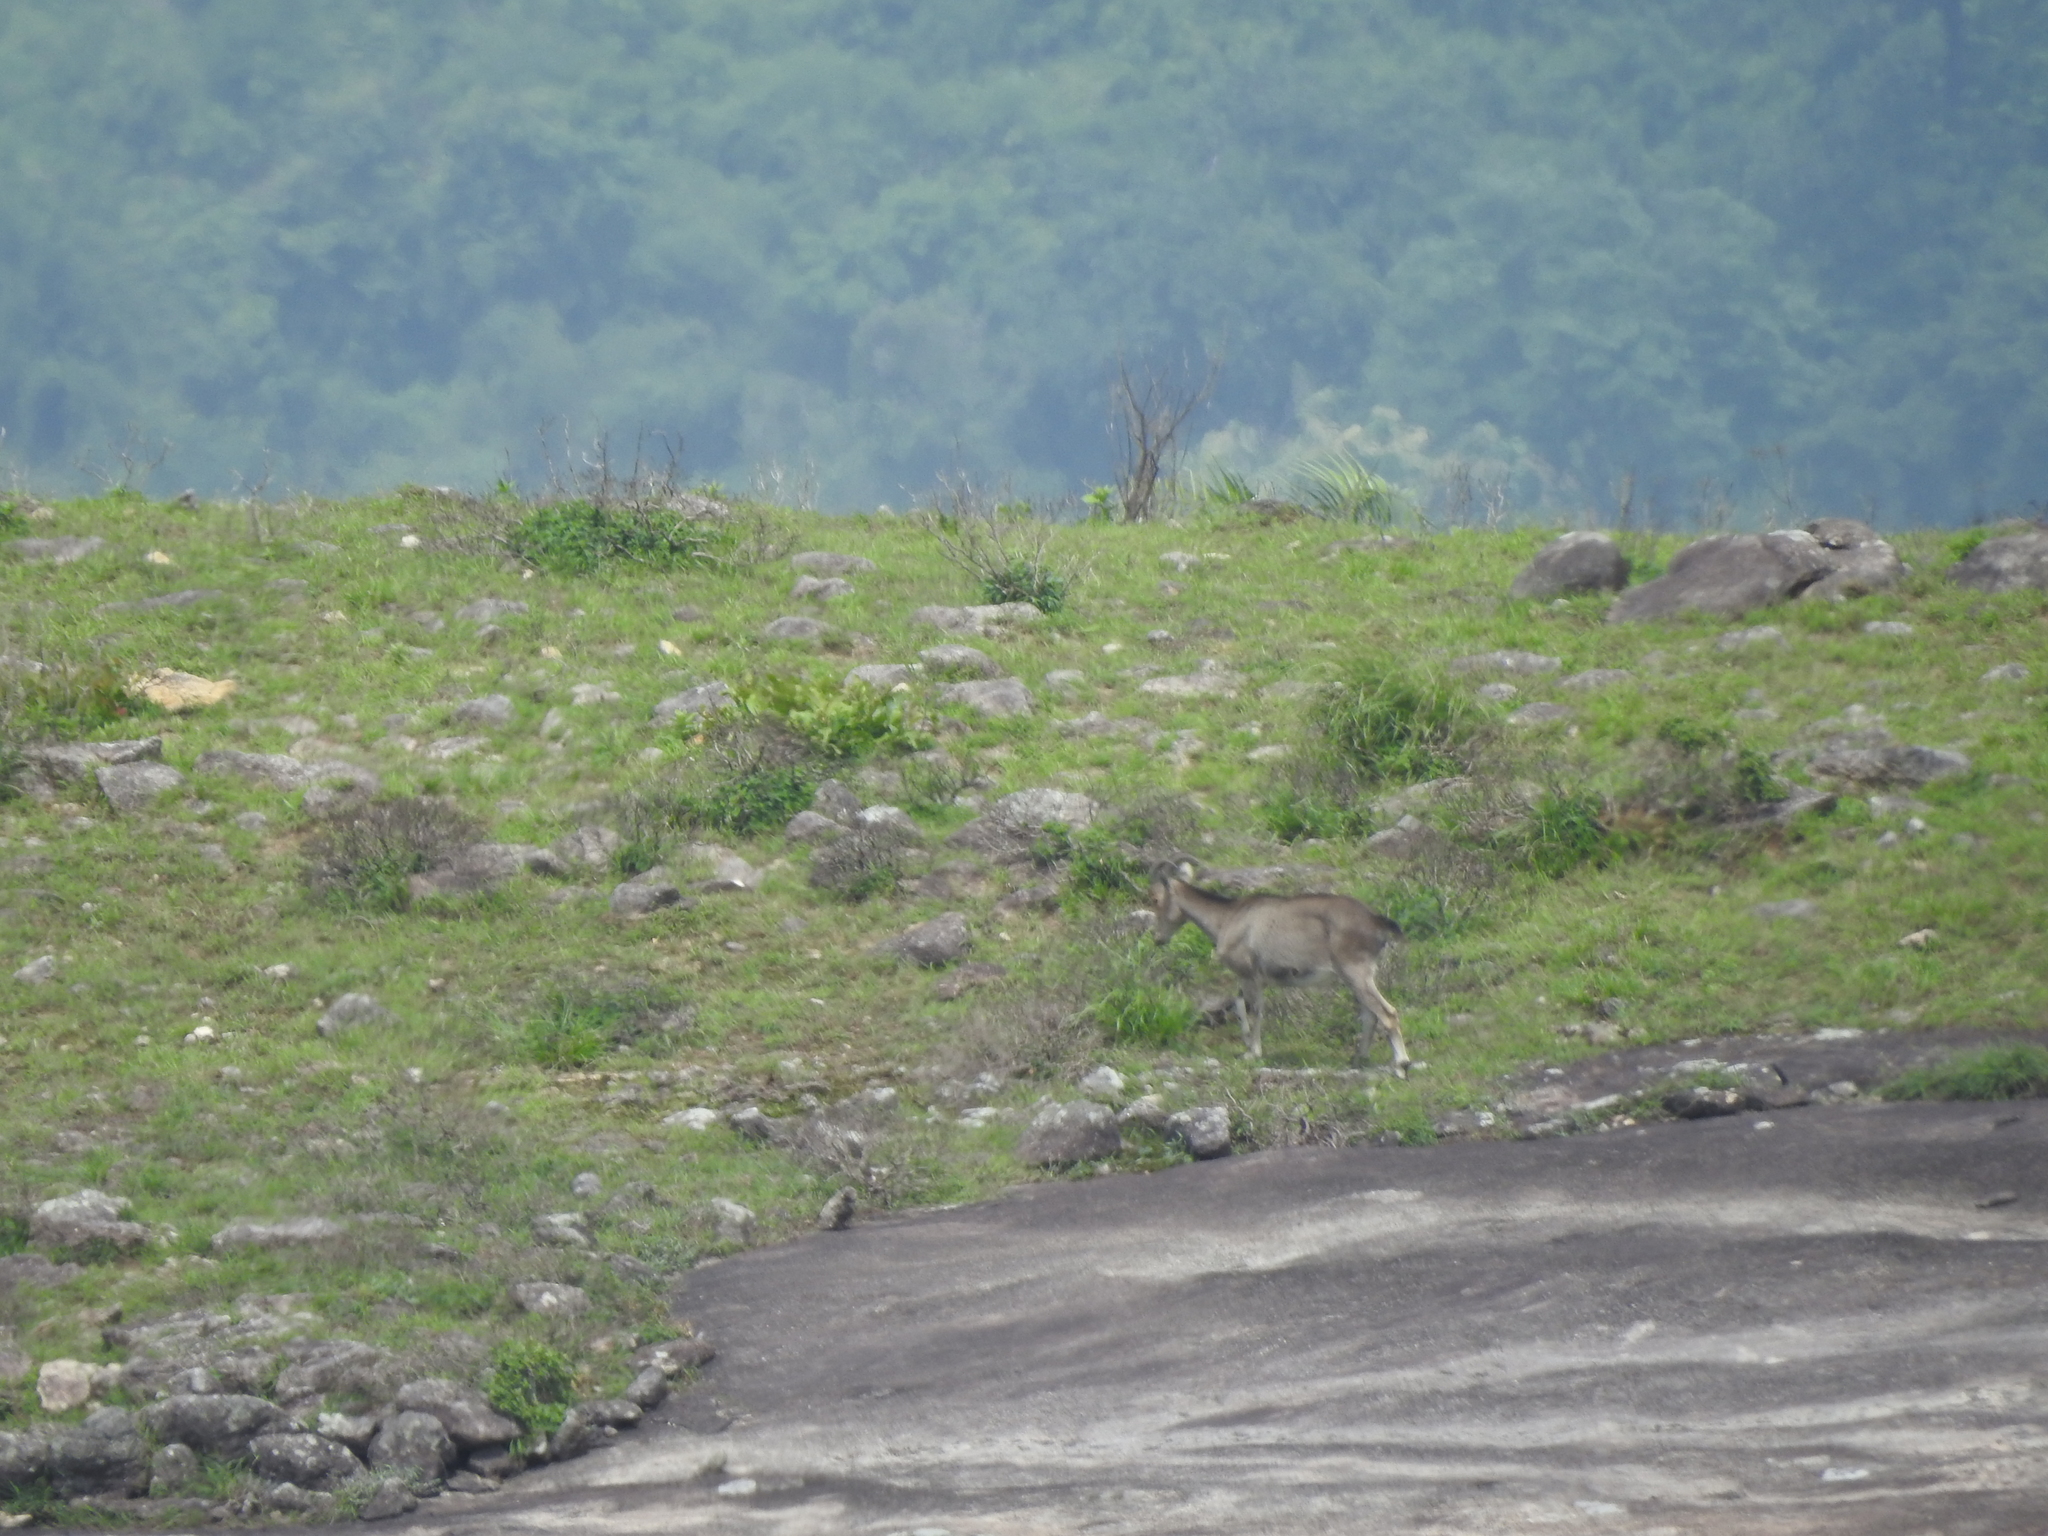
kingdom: Animalia
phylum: Chordata
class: Mammalia
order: Artiodactyla
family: Bovidae
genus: Hemitragus
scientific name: Hemitragus hylocrius
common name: Nilgiri tahr
